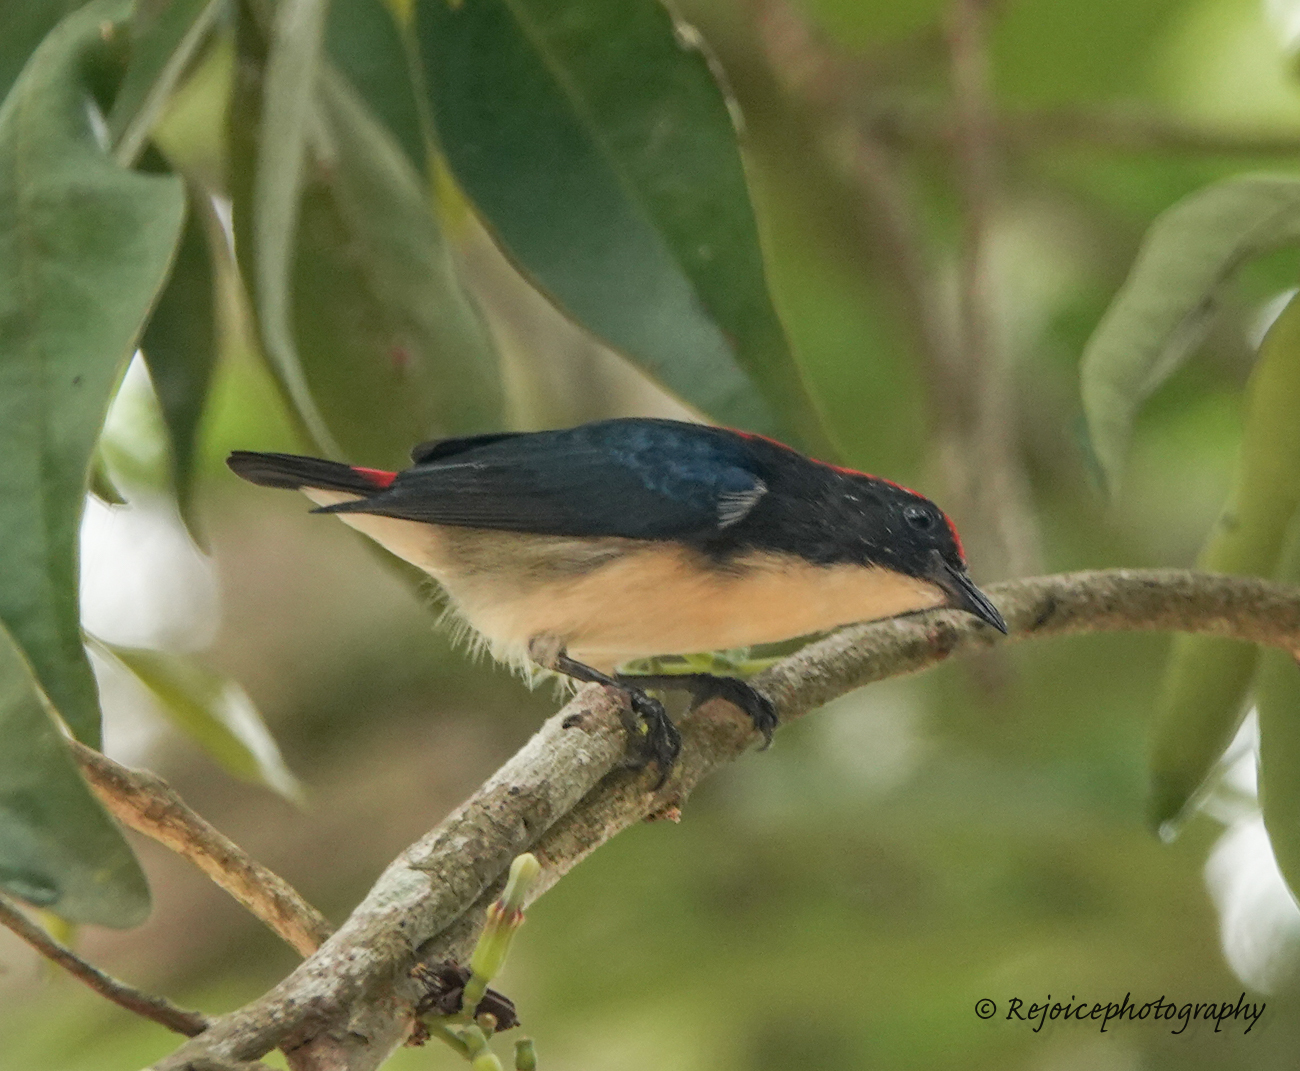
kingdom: Animalia
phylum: Chordata
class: Aves
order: Passeriformes
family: Dicaeidae
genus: Dicaeum
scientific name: Dicaeum cruentatum
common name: Scarlet-backed flowerpecker
